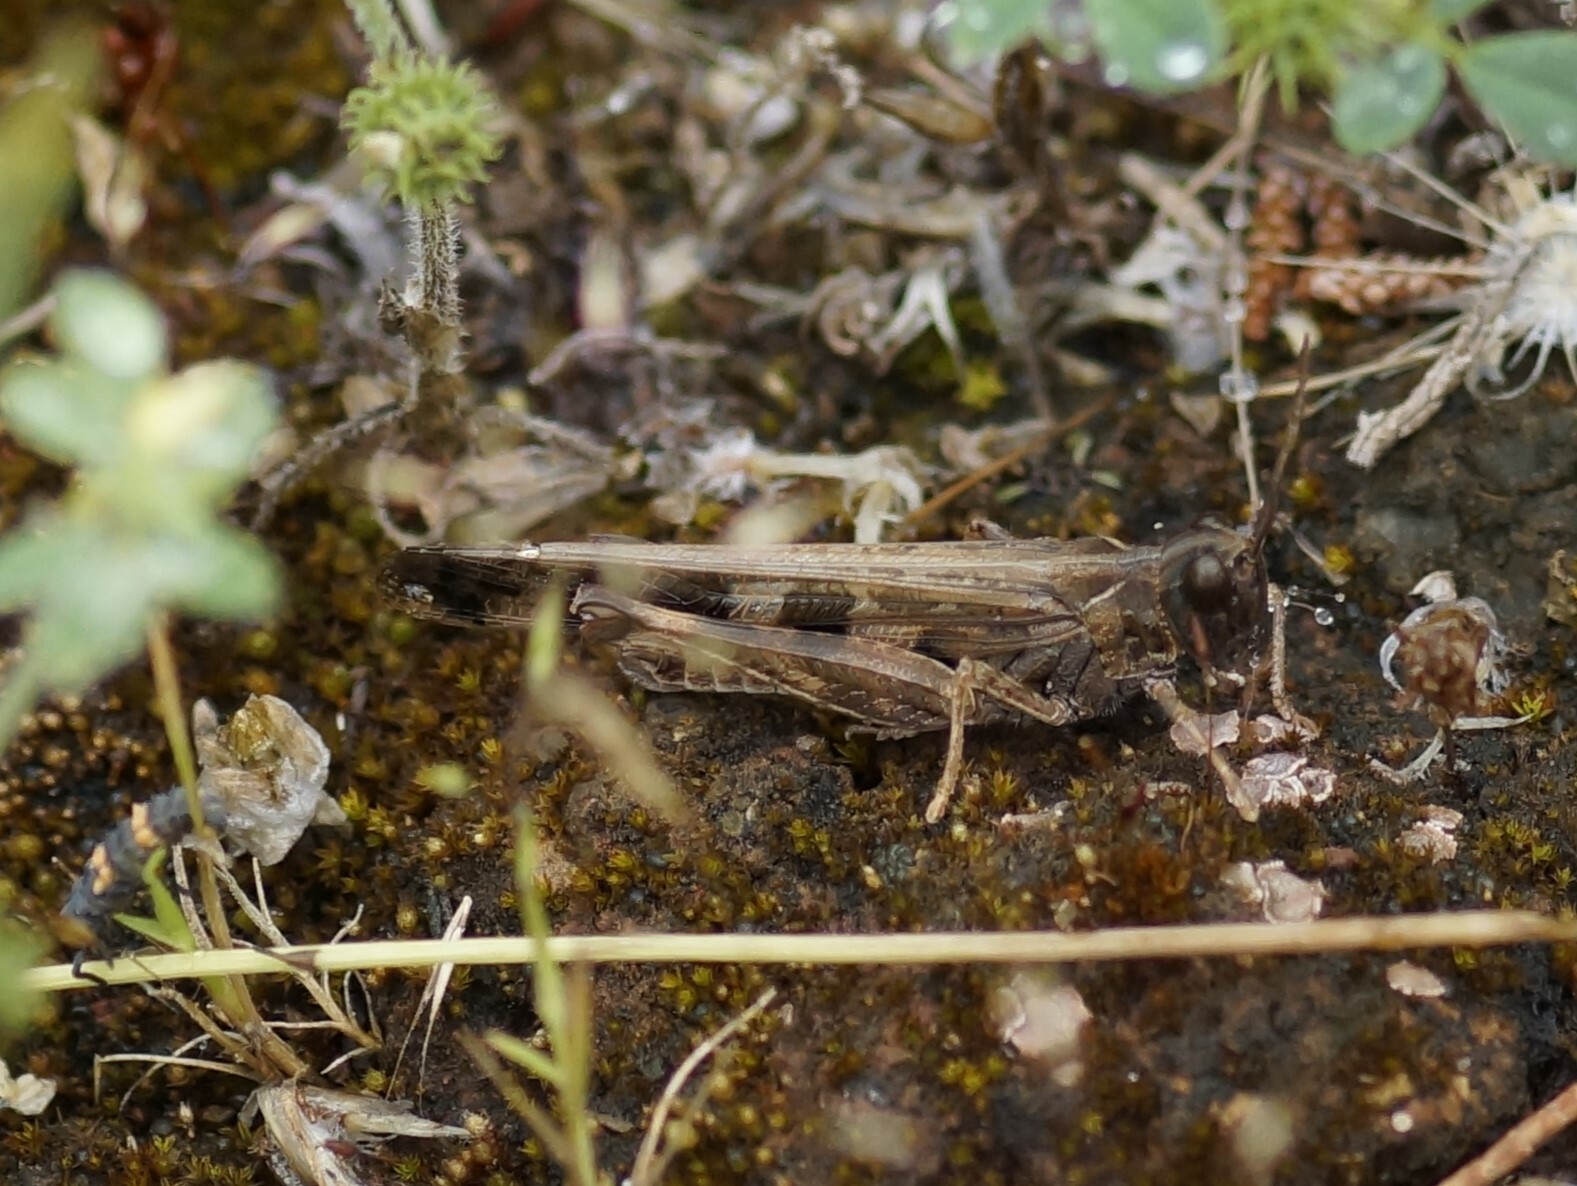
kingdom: Animalia
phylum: Arthropoda
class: Insecta
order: Orthoptera
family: Acrididae
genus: Chortoicetes
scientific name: Chortoicetes terminifera
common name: Australian plague locust
